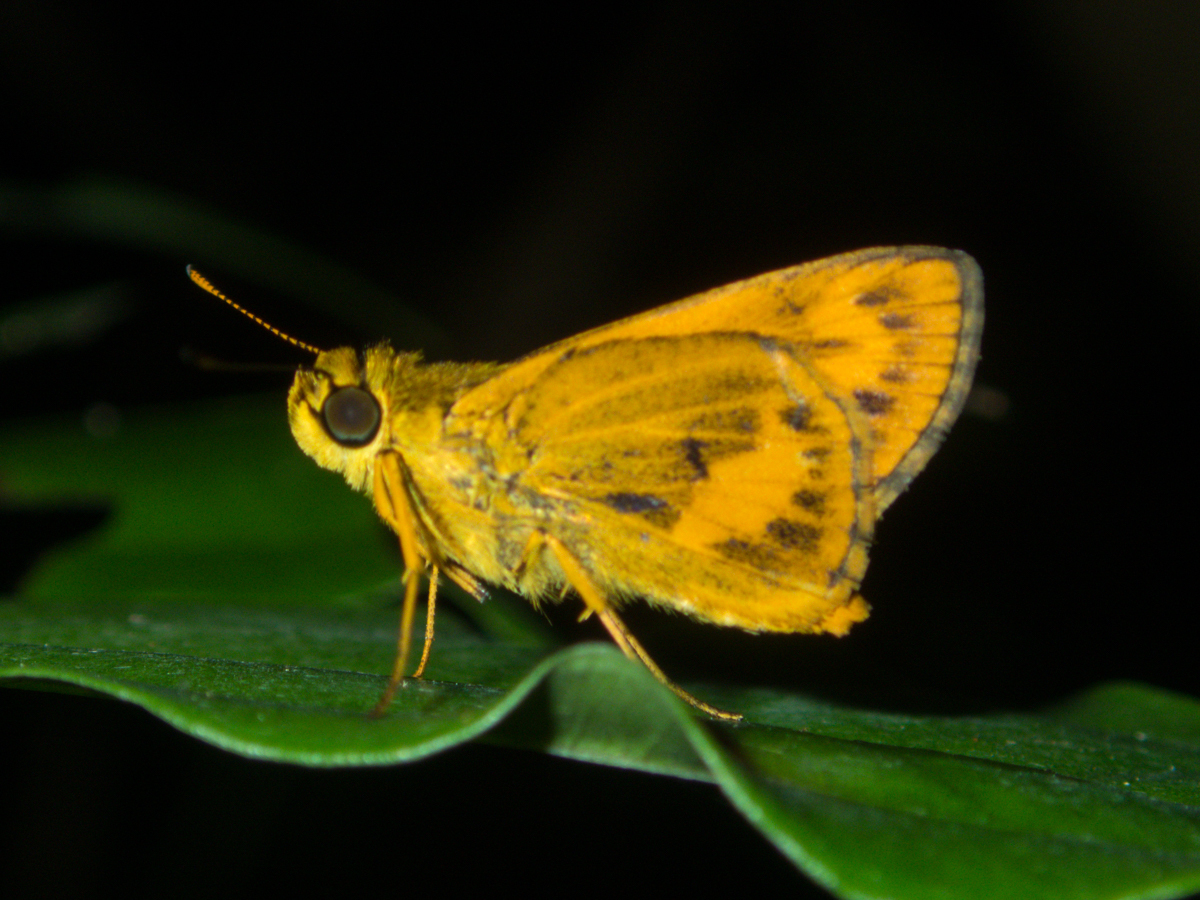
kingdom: Animalia
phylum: Arthropoda
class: Insecta
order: Lepidoptera
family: Hesperiidae
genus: Oriens
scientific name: Oriens gola
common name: Common dartlet
